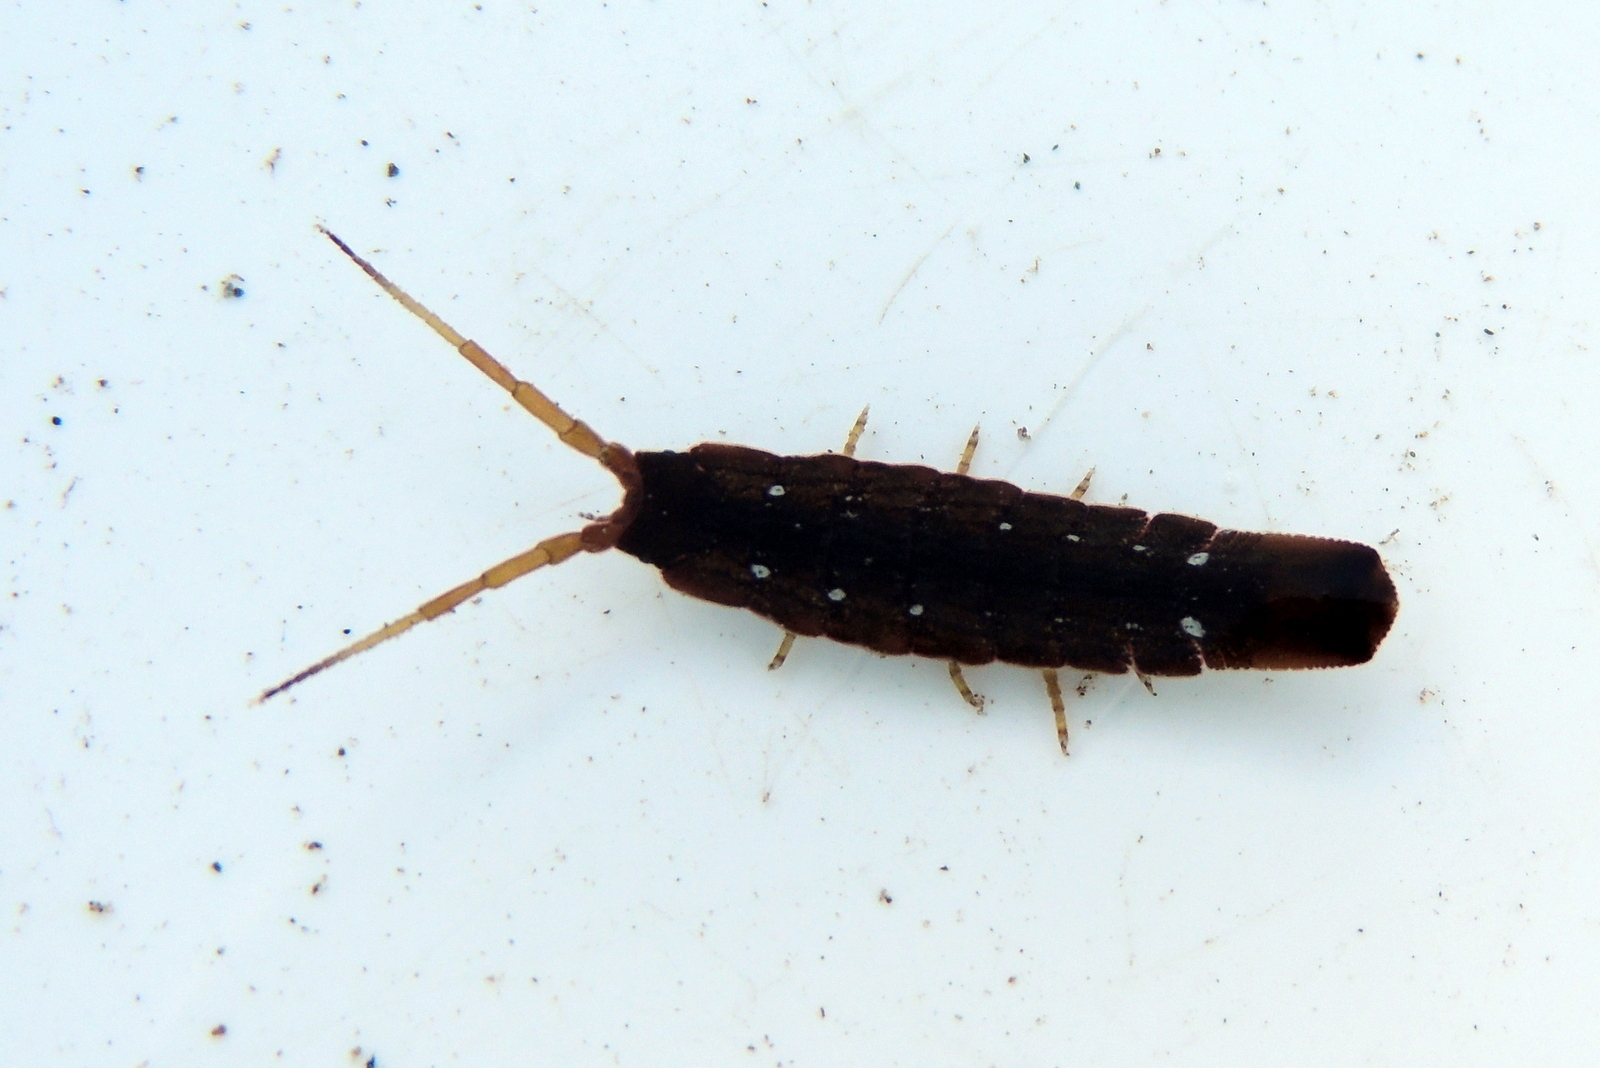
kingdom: Animalia
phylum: Arthropoda
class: Malacostraca
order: Isopoda
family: Idoteidae
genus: Idotea
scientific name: Idotea urotoma
